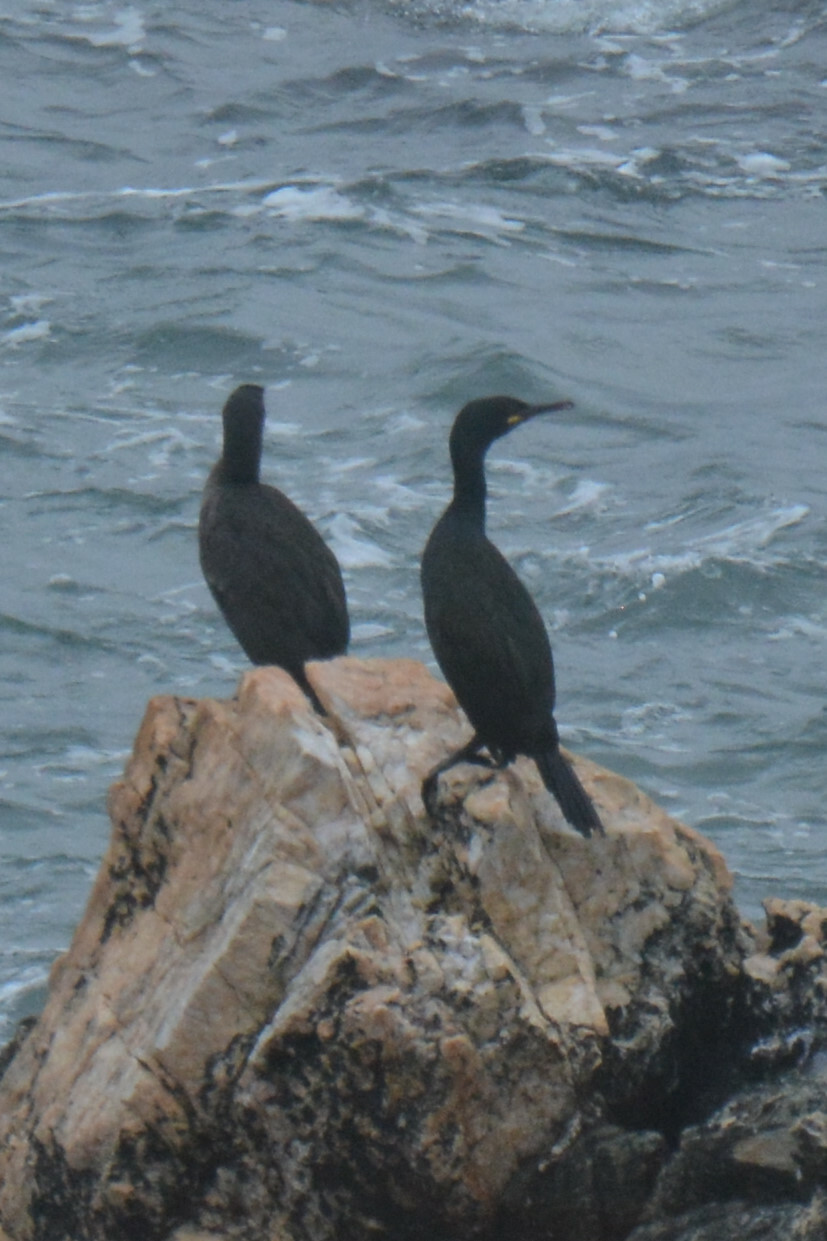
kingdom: Animalia
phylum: Chordata
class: Aves
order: Suliformes
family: Phalacrocoracidae
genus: Phalacrocorax
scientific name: Phalacrocorax aristotelis
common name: European shag
